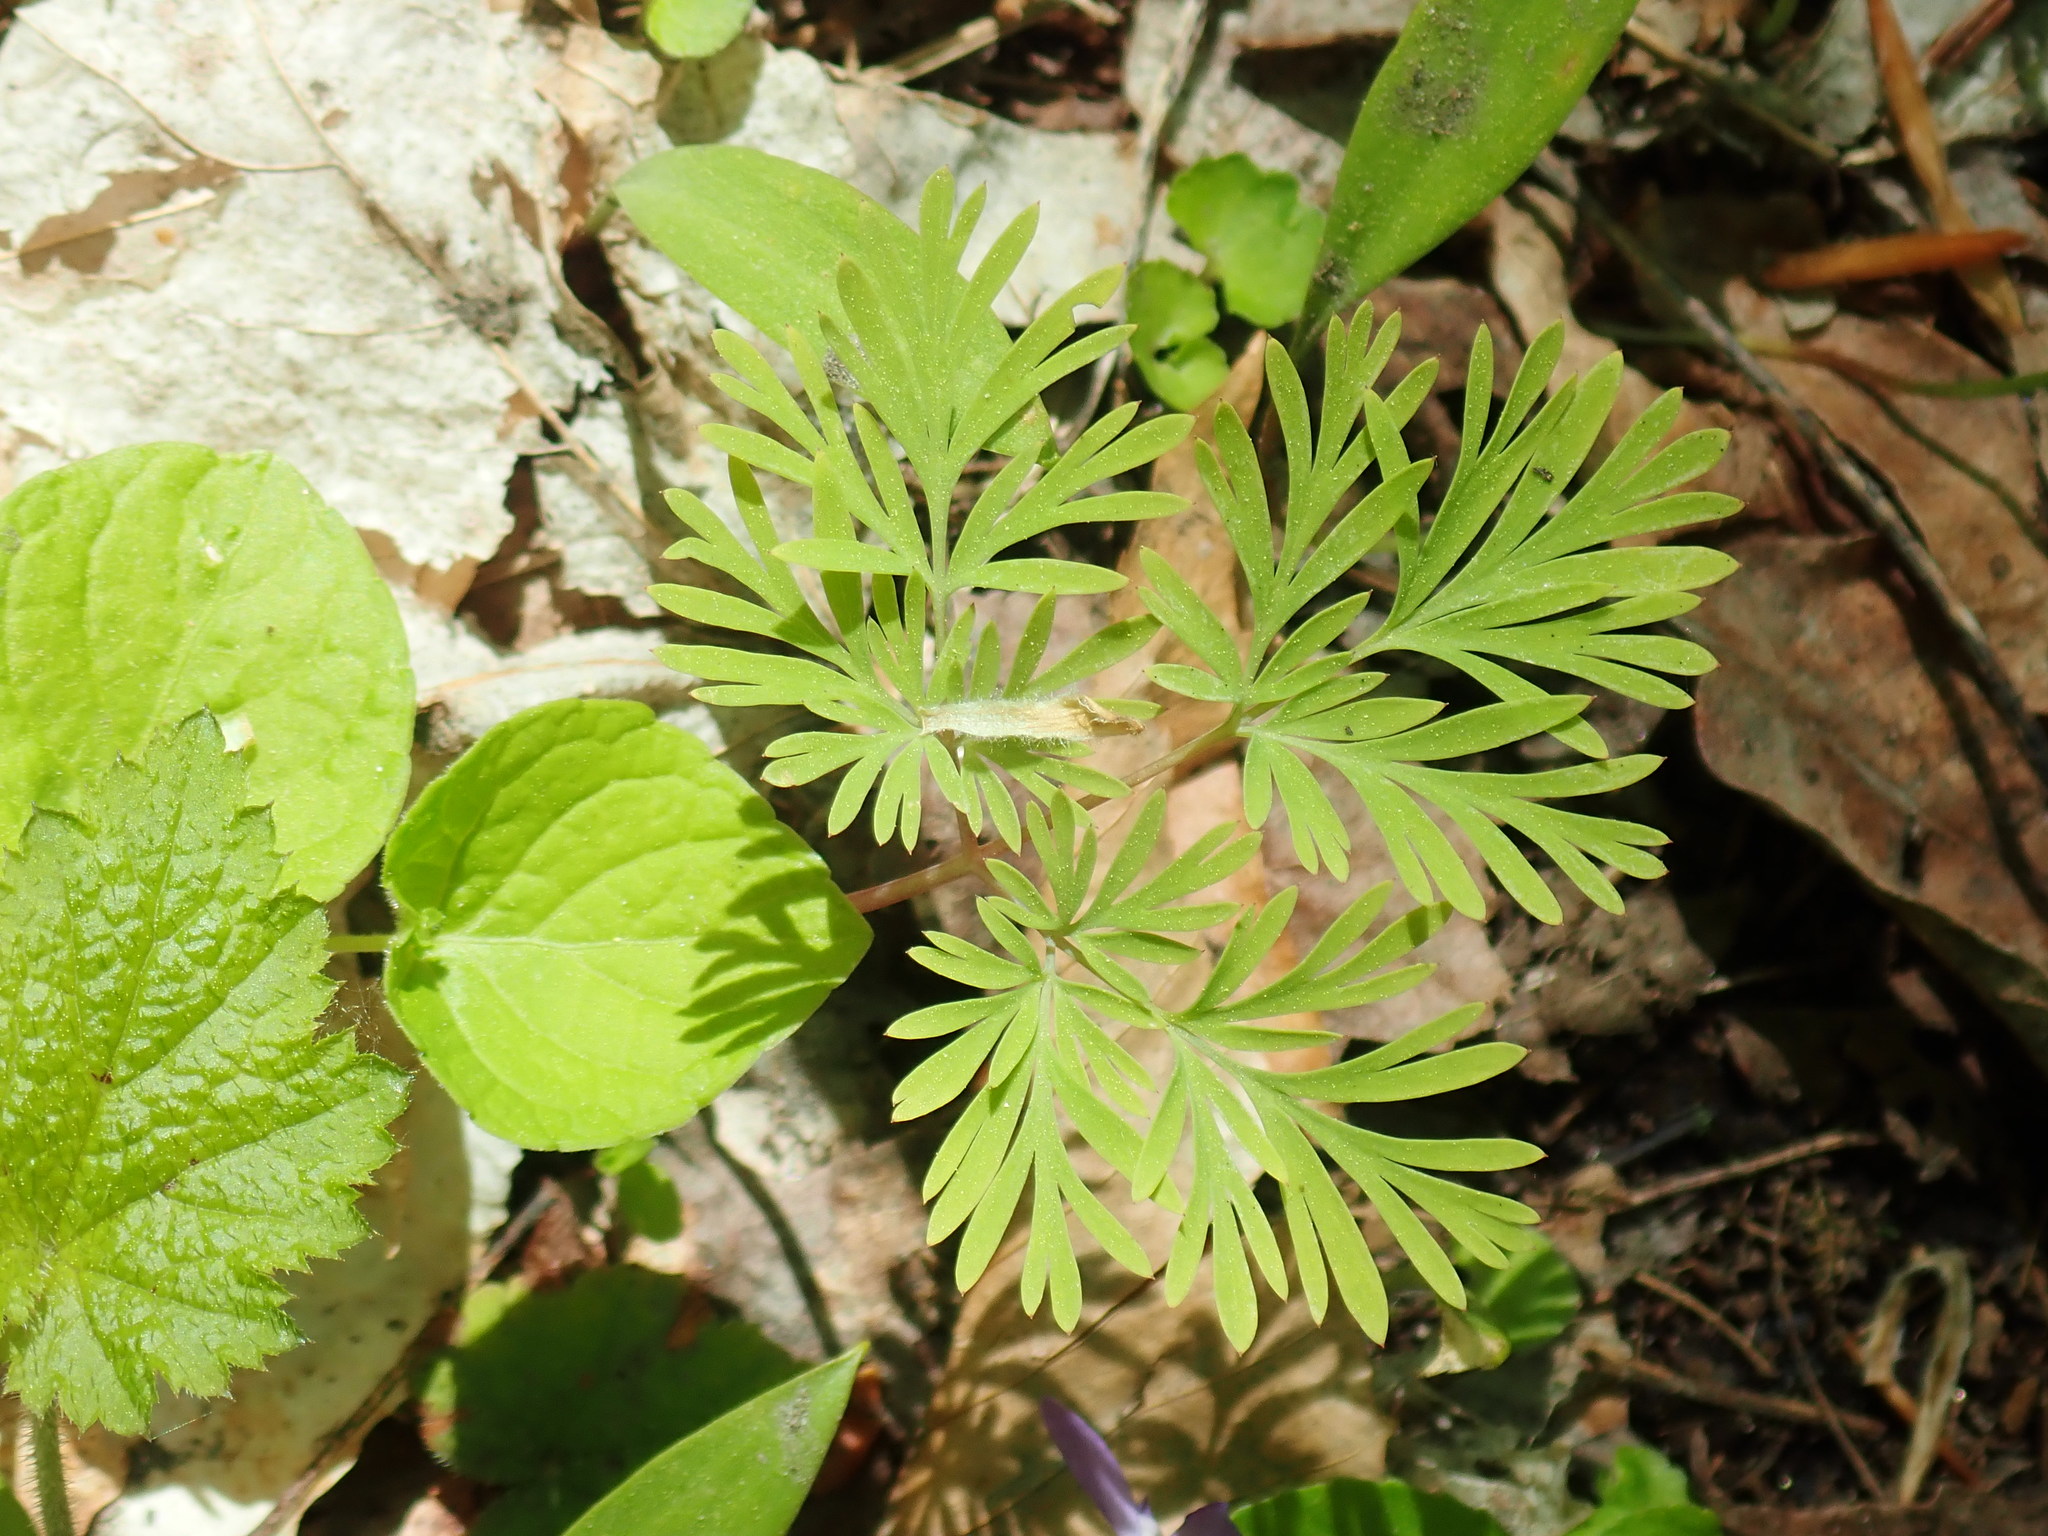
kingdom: Plantae
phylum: Tracheophyta
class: Magnoliopsida
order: Ranunculales
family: Papaveraceae
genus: Dicentra
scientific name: Dicentra
